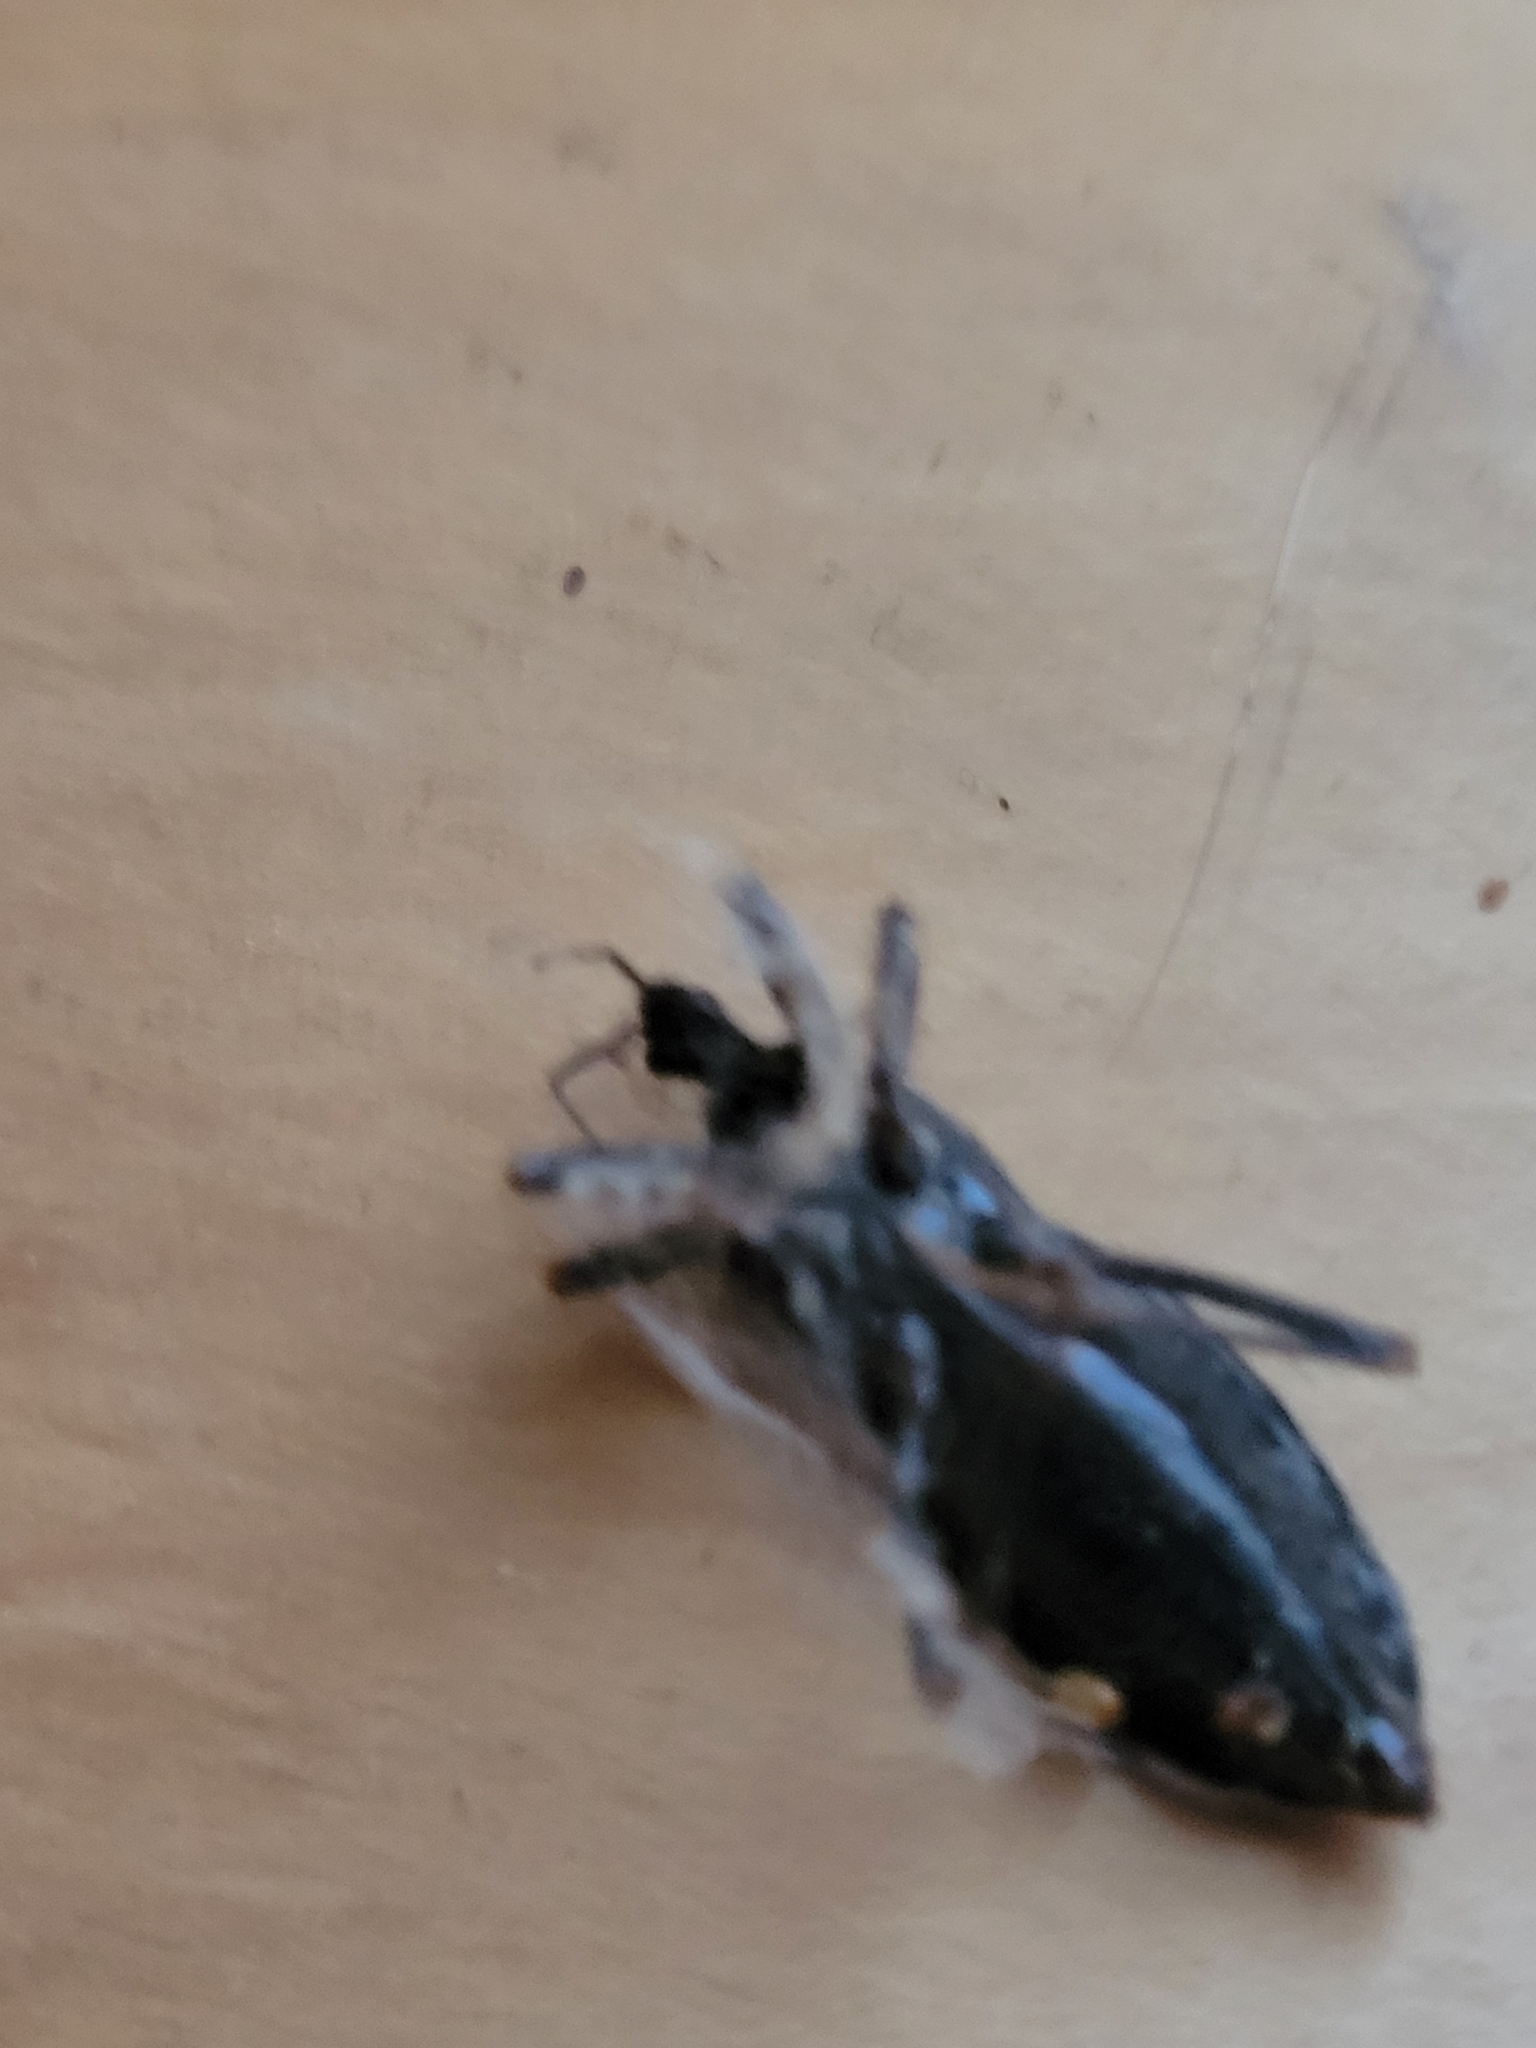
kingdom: Animalia
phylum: Arthropoda
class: Insecta
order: Hemiptera
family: Reduviidae
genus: Reduvius
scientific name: Reduvius personatus
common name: Masked hunter
